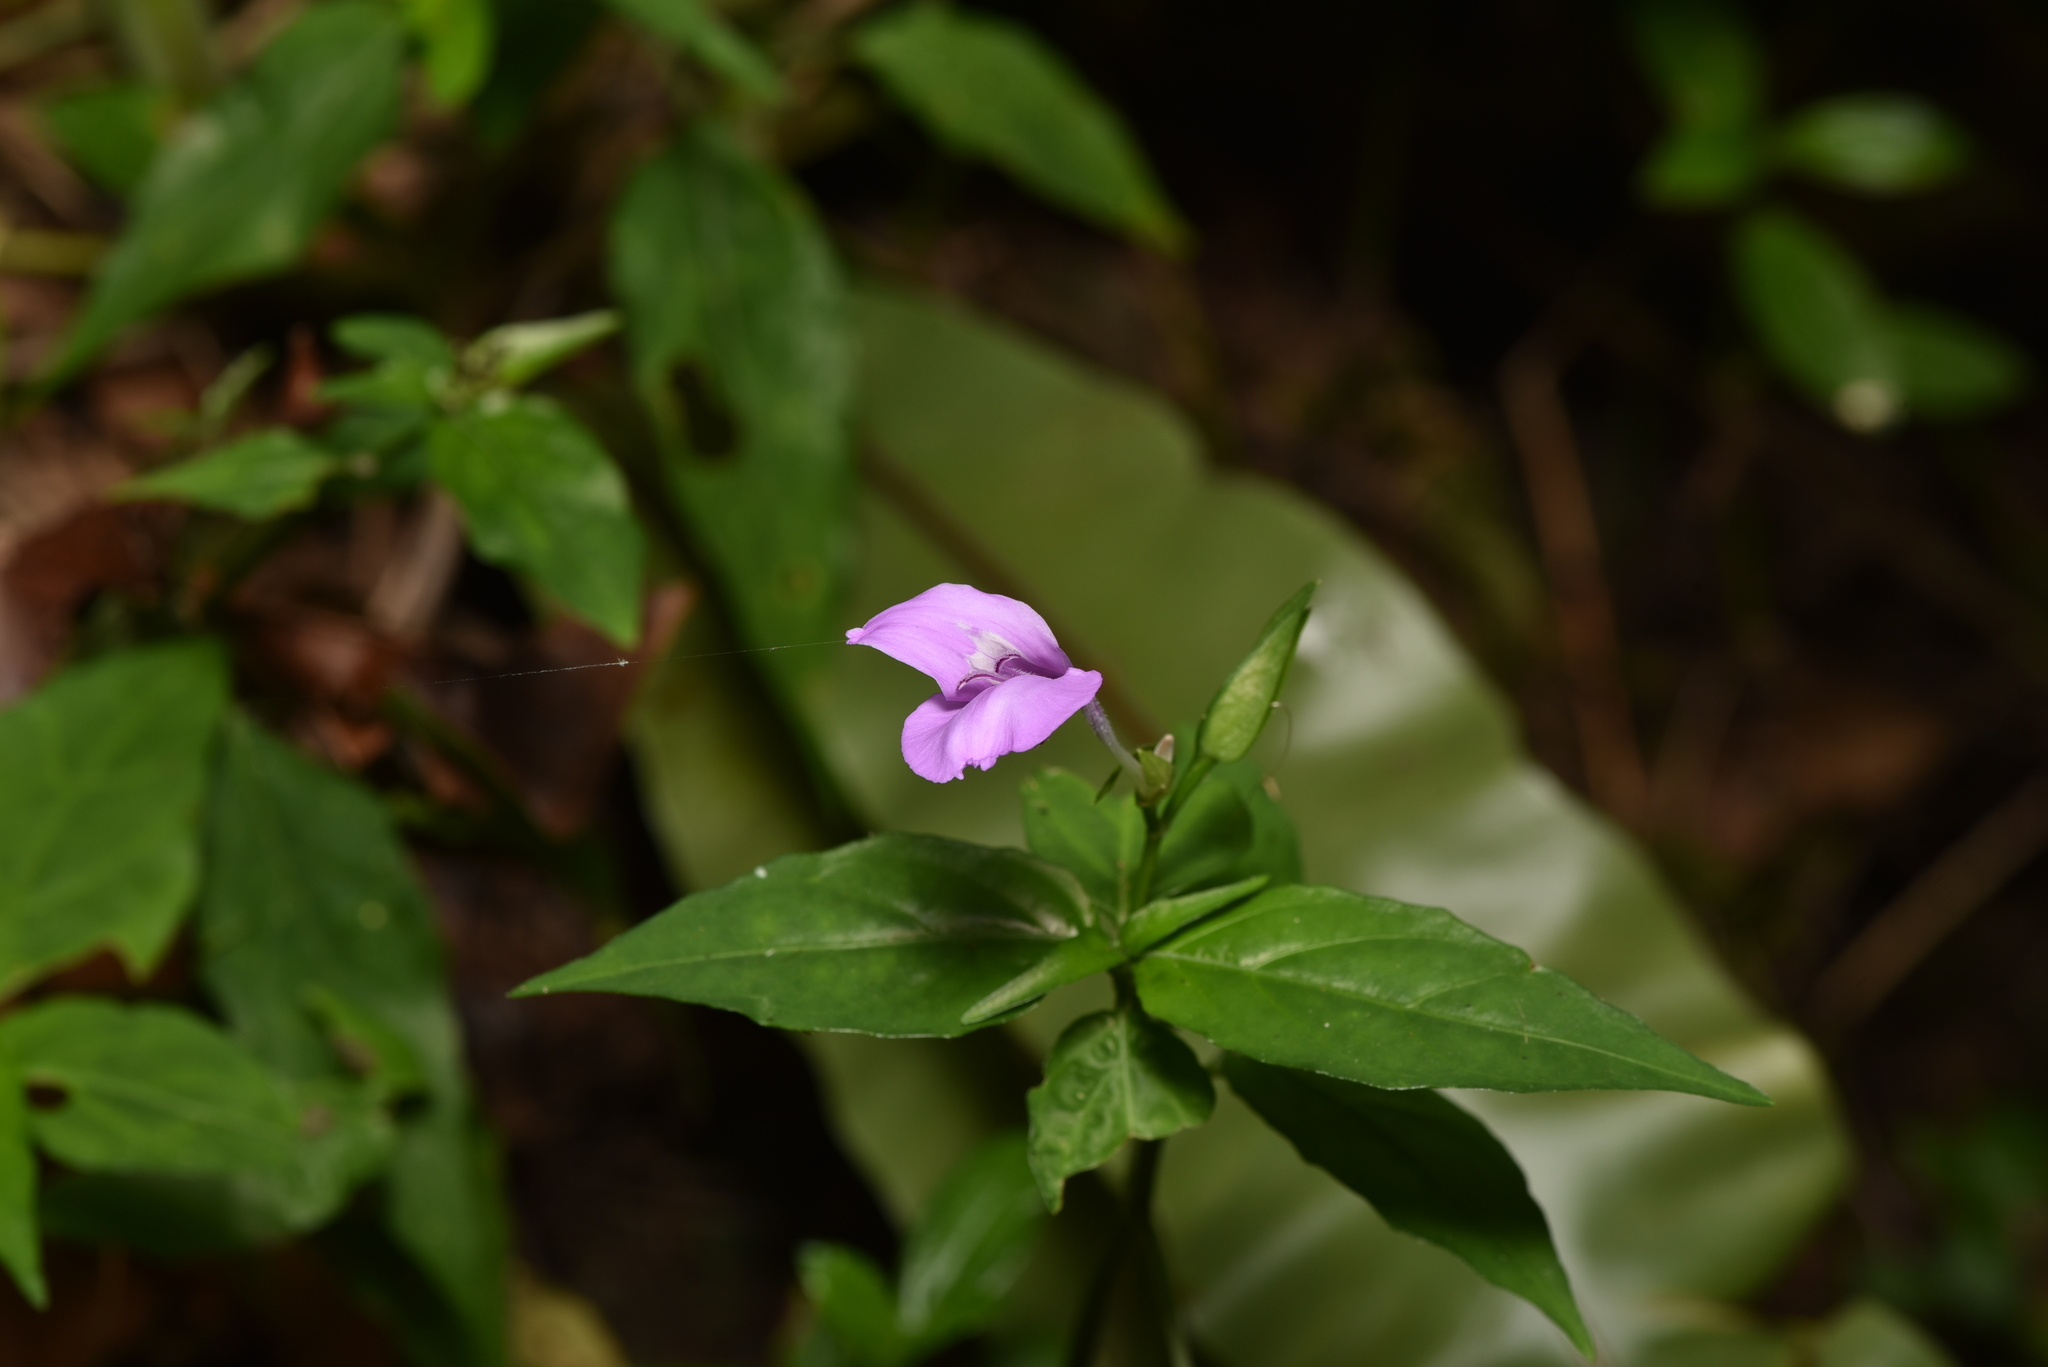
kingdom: Plantae
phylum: Tracheophyta
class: Magnoliopsida
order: Lamiales
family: Acanthaceae
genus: Dicliptera
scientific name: Dicliptera tinctoria
